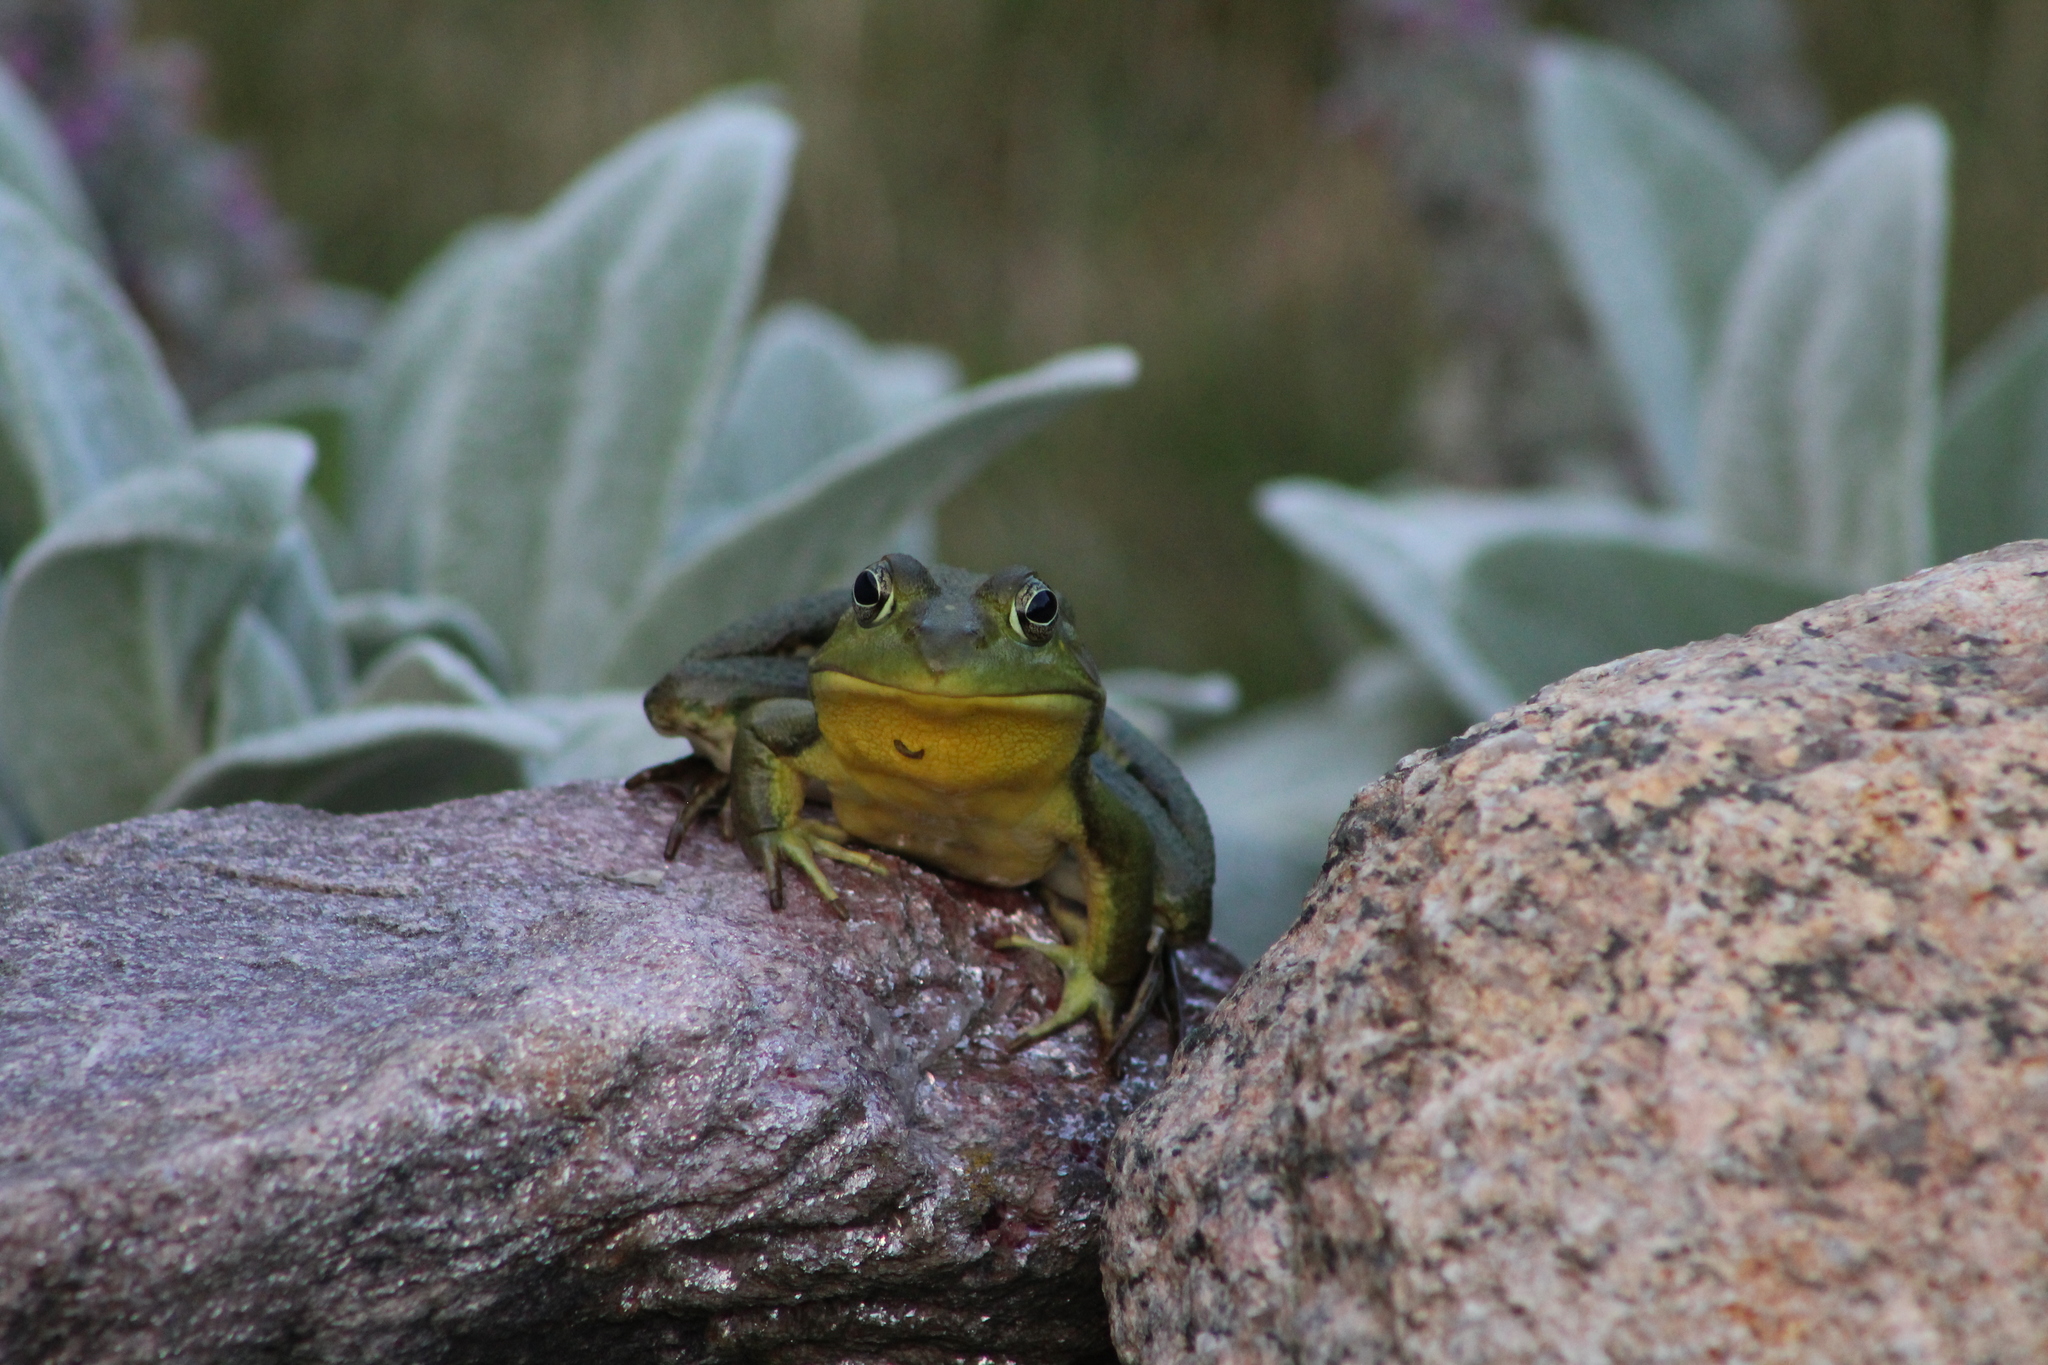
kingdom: Animalia
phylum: Chordata
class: Amphibia
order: Anura
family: Ranidae
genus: Lithobates
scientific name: Lithobates catesbeianus
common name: American bullfrog
